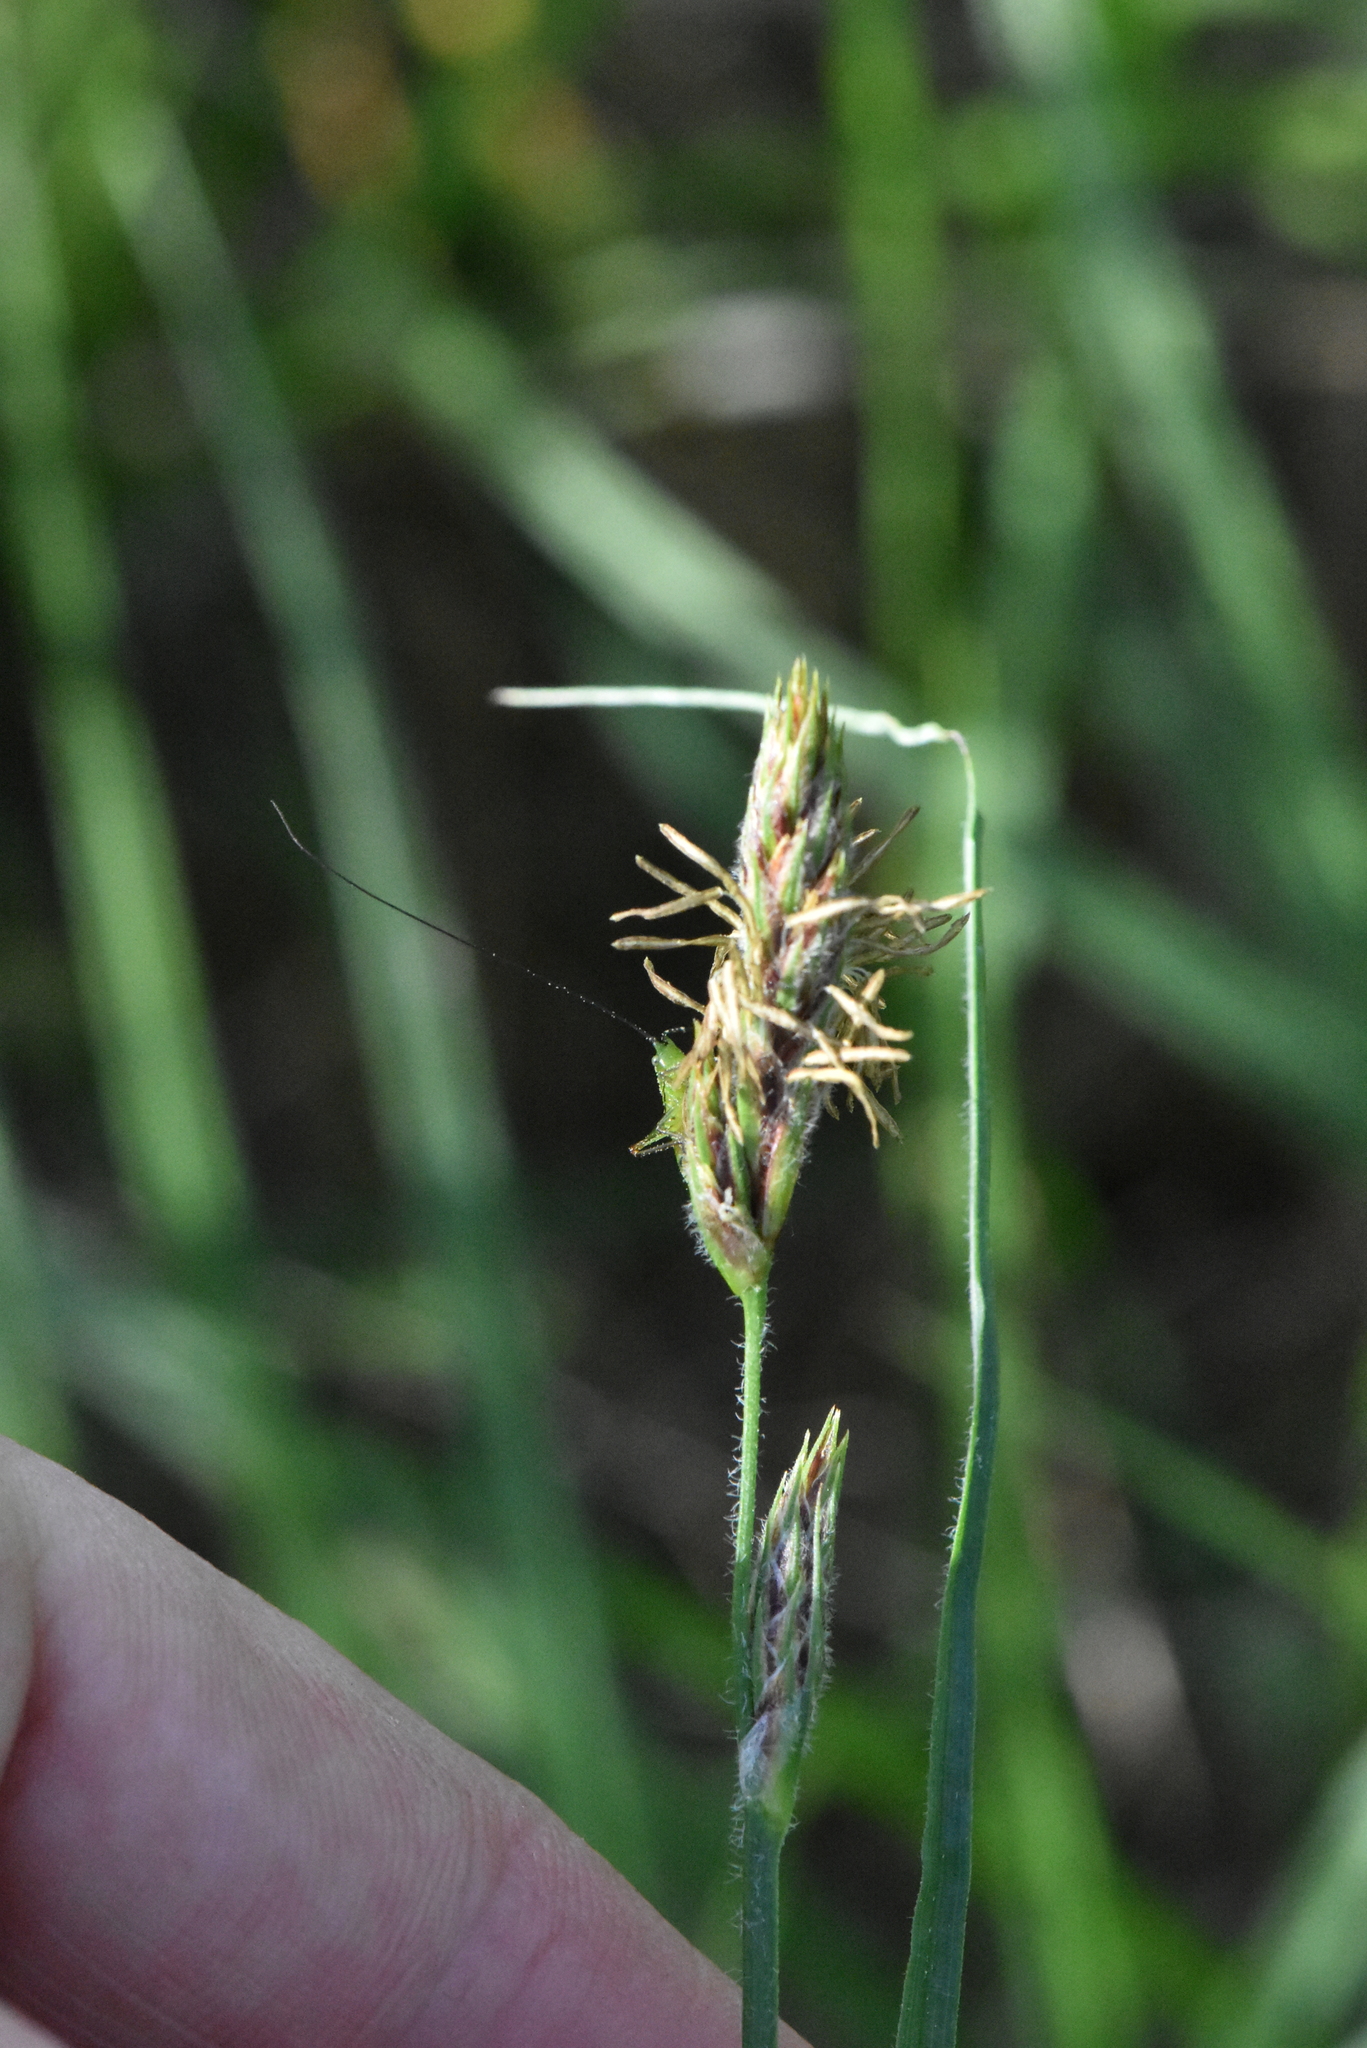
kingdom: Plantae
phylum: Tracheophyta
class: Liliopsida
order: Poales
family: Cyperaceae
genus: Carex
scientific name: Carex hirta
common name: Hairy sedge
